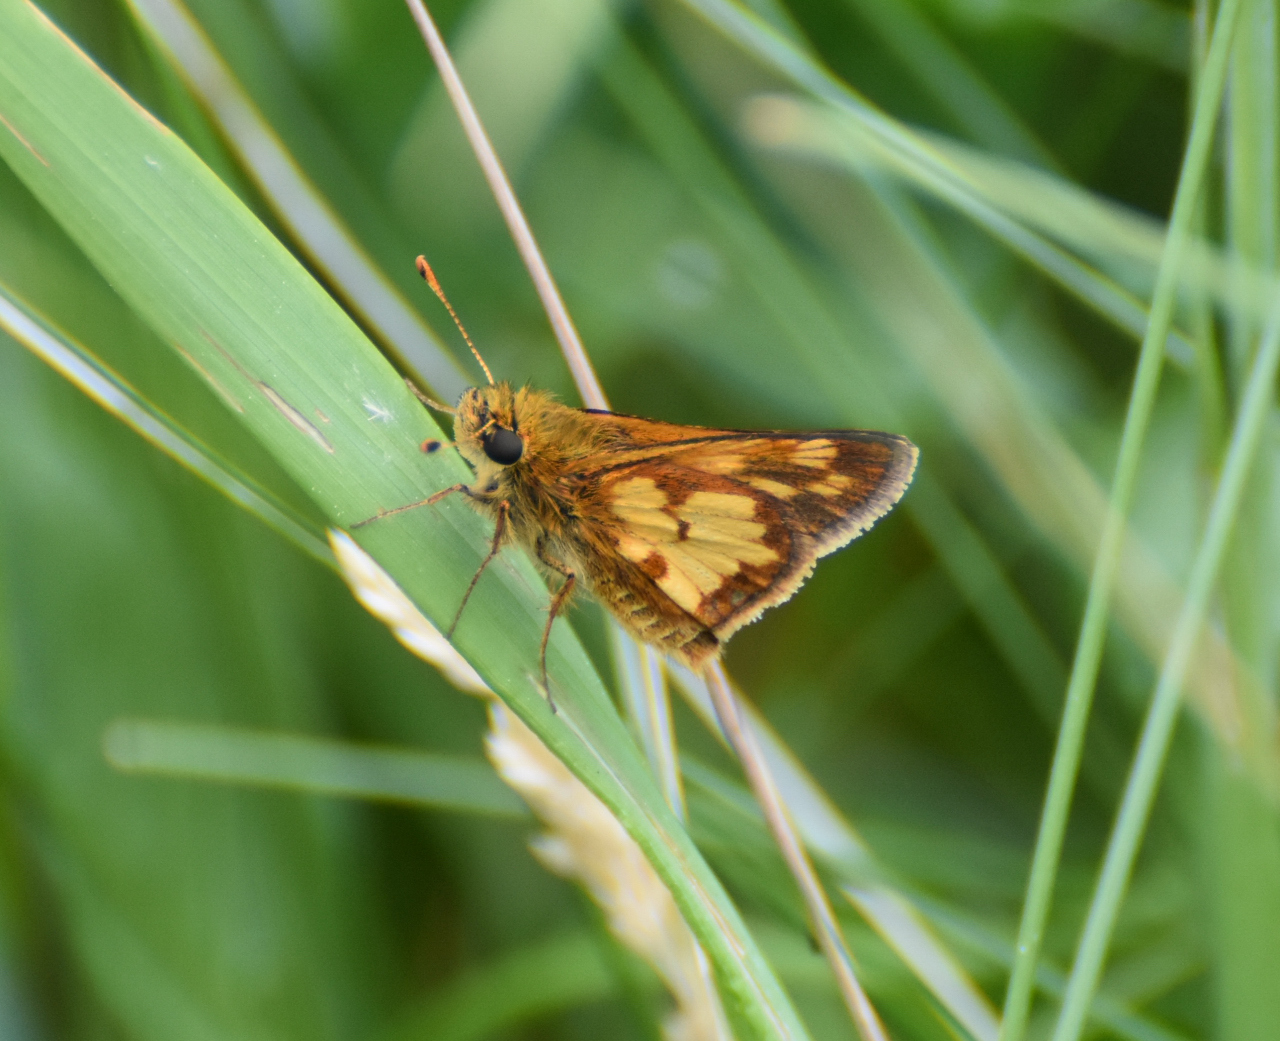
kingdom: Animalia
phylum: Arthropoda
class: Insecta
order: Lepidoptera
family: Hesperiidae
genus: Polites
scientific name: Polites coras
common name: Peck's skipper
